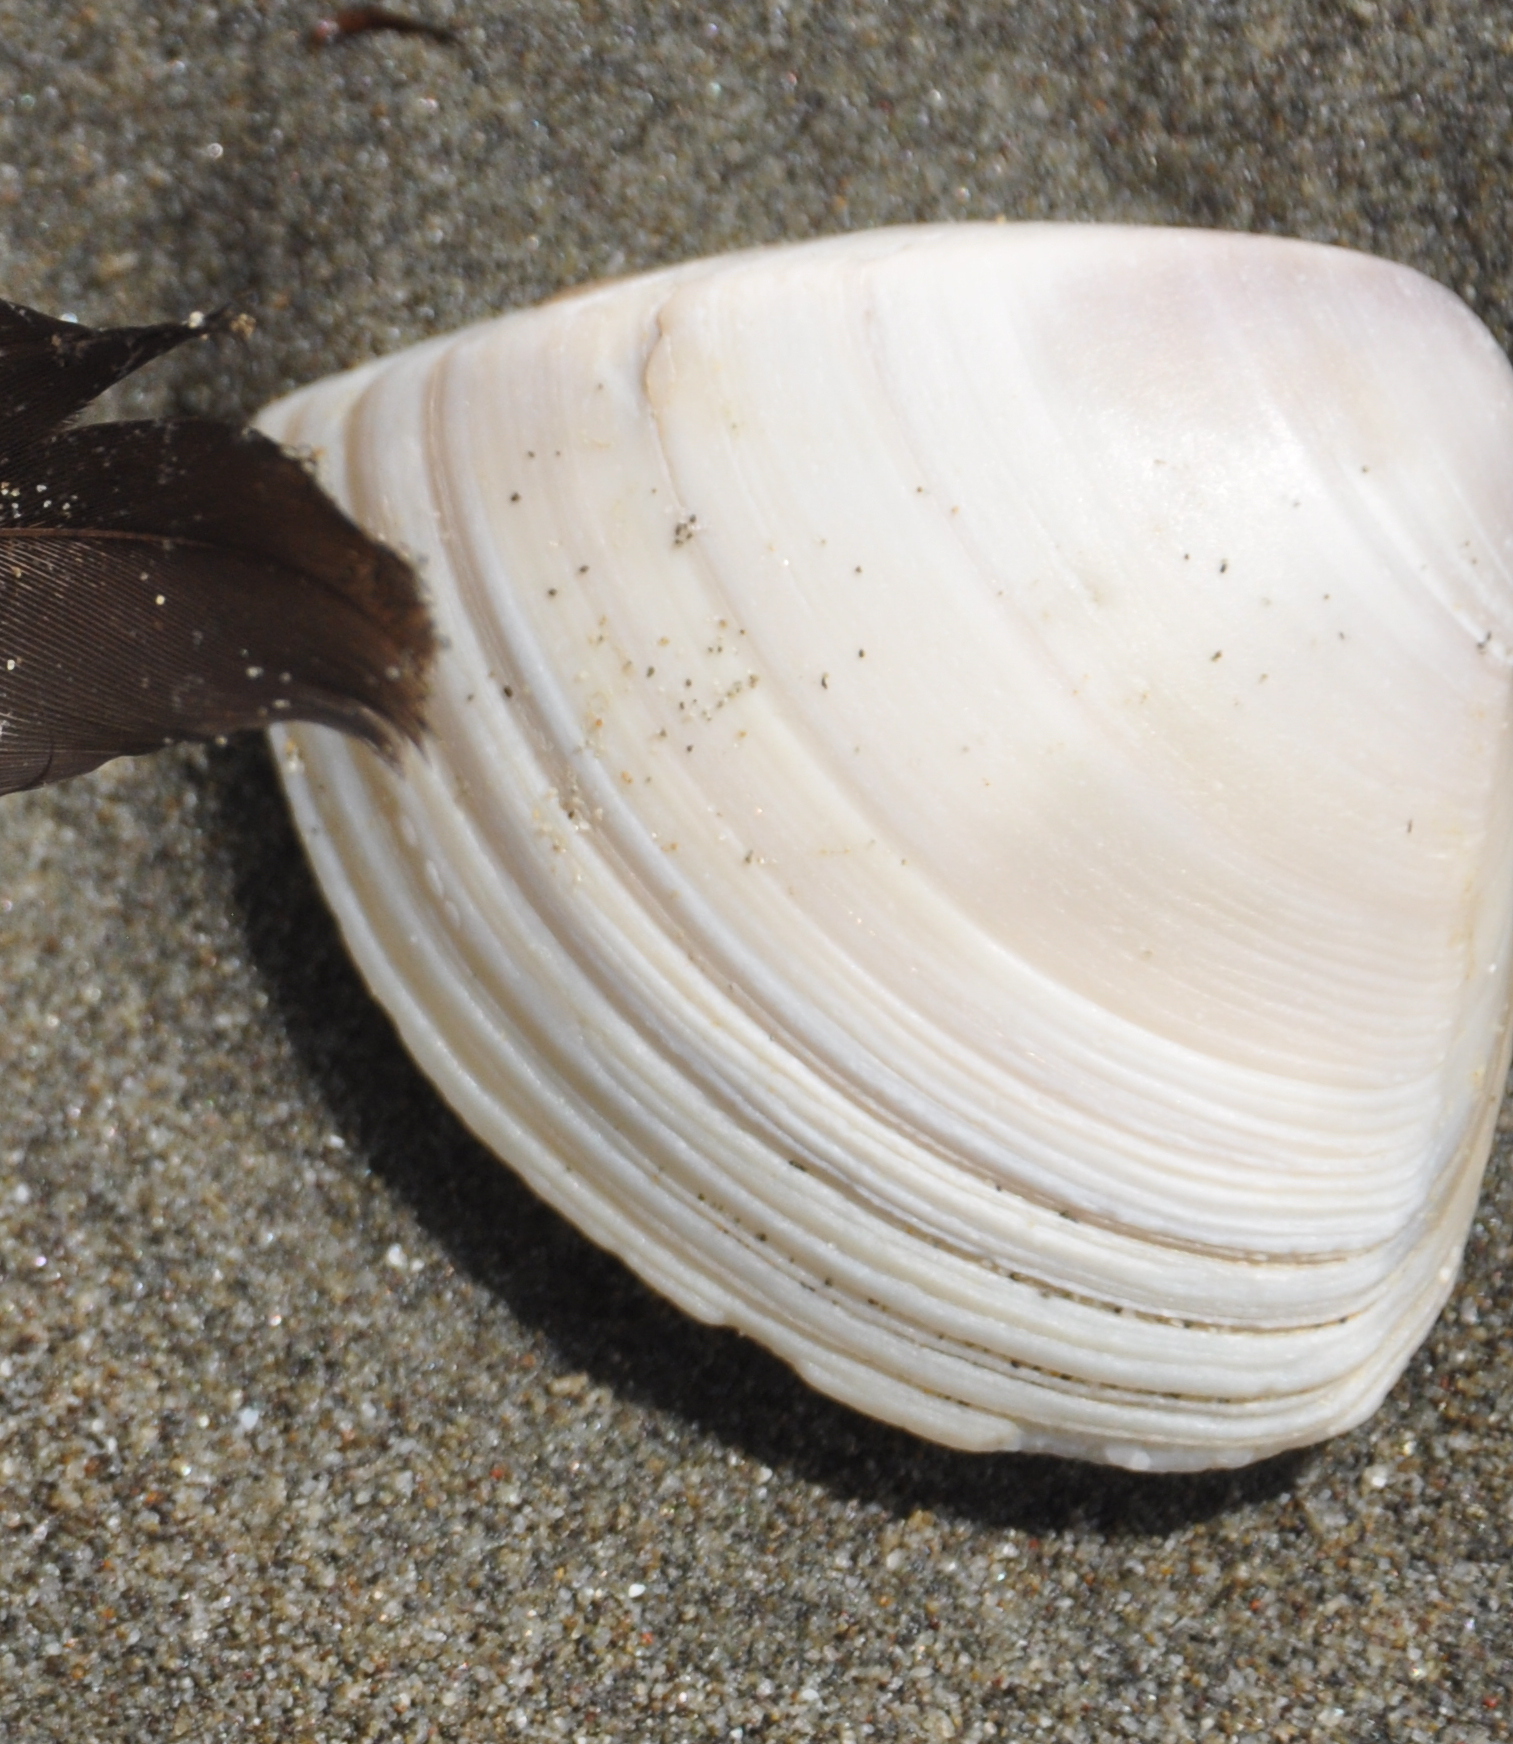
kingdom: Animalia
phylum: Mollusca
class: Bivalvia
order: Venerida
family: Mactridae
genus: Crassula
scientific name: Crassula aequilatera
